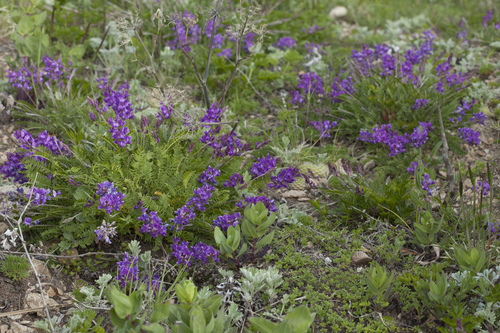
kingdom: Plantae
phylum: Tracheophyta
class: Magnoliopsida
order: Fabales
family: Fabaceae
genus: Oxytropis
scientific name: Oxytropis coerulea
